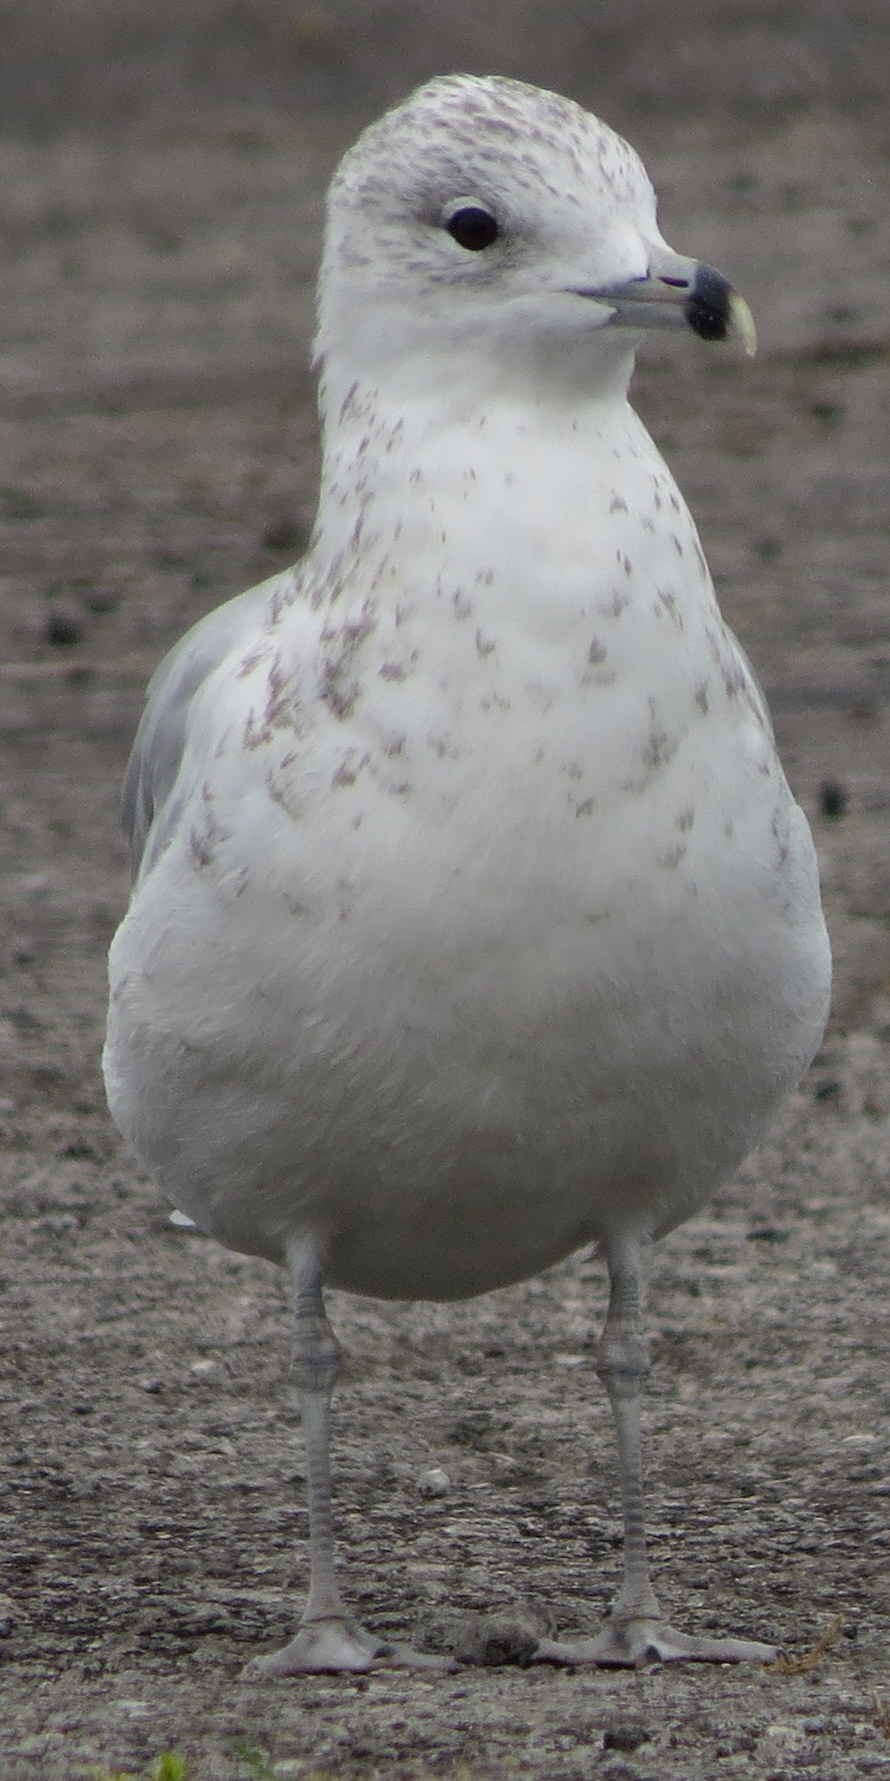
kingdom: Animalia
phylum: Chordata
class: Aves
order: Charadriiformes
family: Laridae
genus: Larus
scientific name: Larus delawarensis
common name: Ring-billed gull
